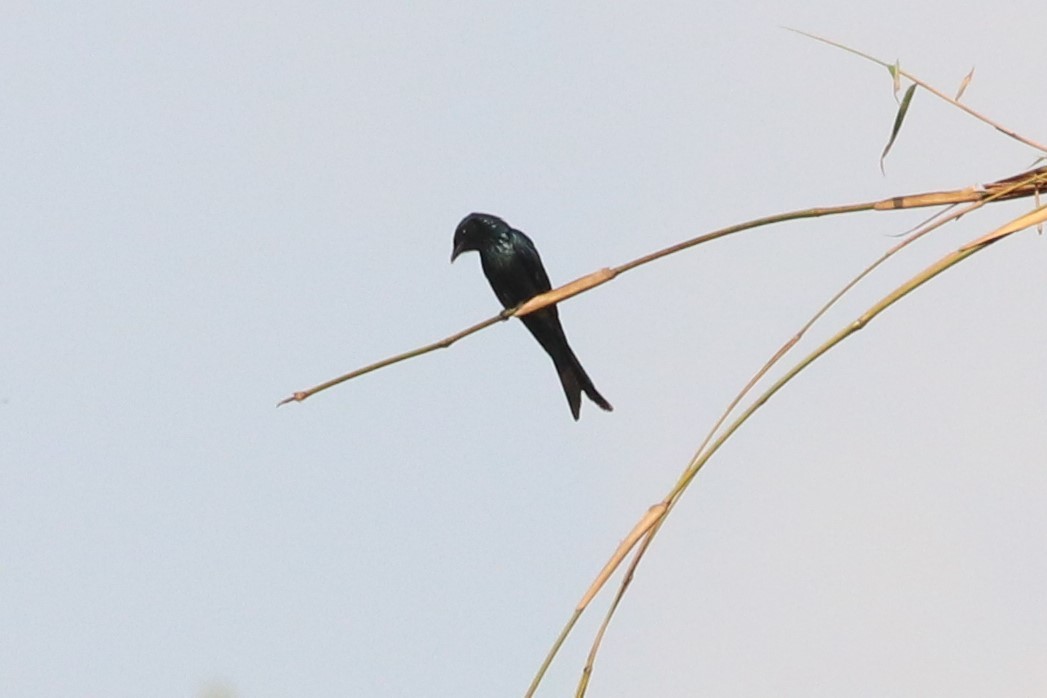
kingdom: Animalia
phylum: Chordata
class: Aves
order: Passeriformes
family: Dicruridae
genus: Dicrurus
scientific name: Dicrurus aeneus
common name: Bronzed drongo
